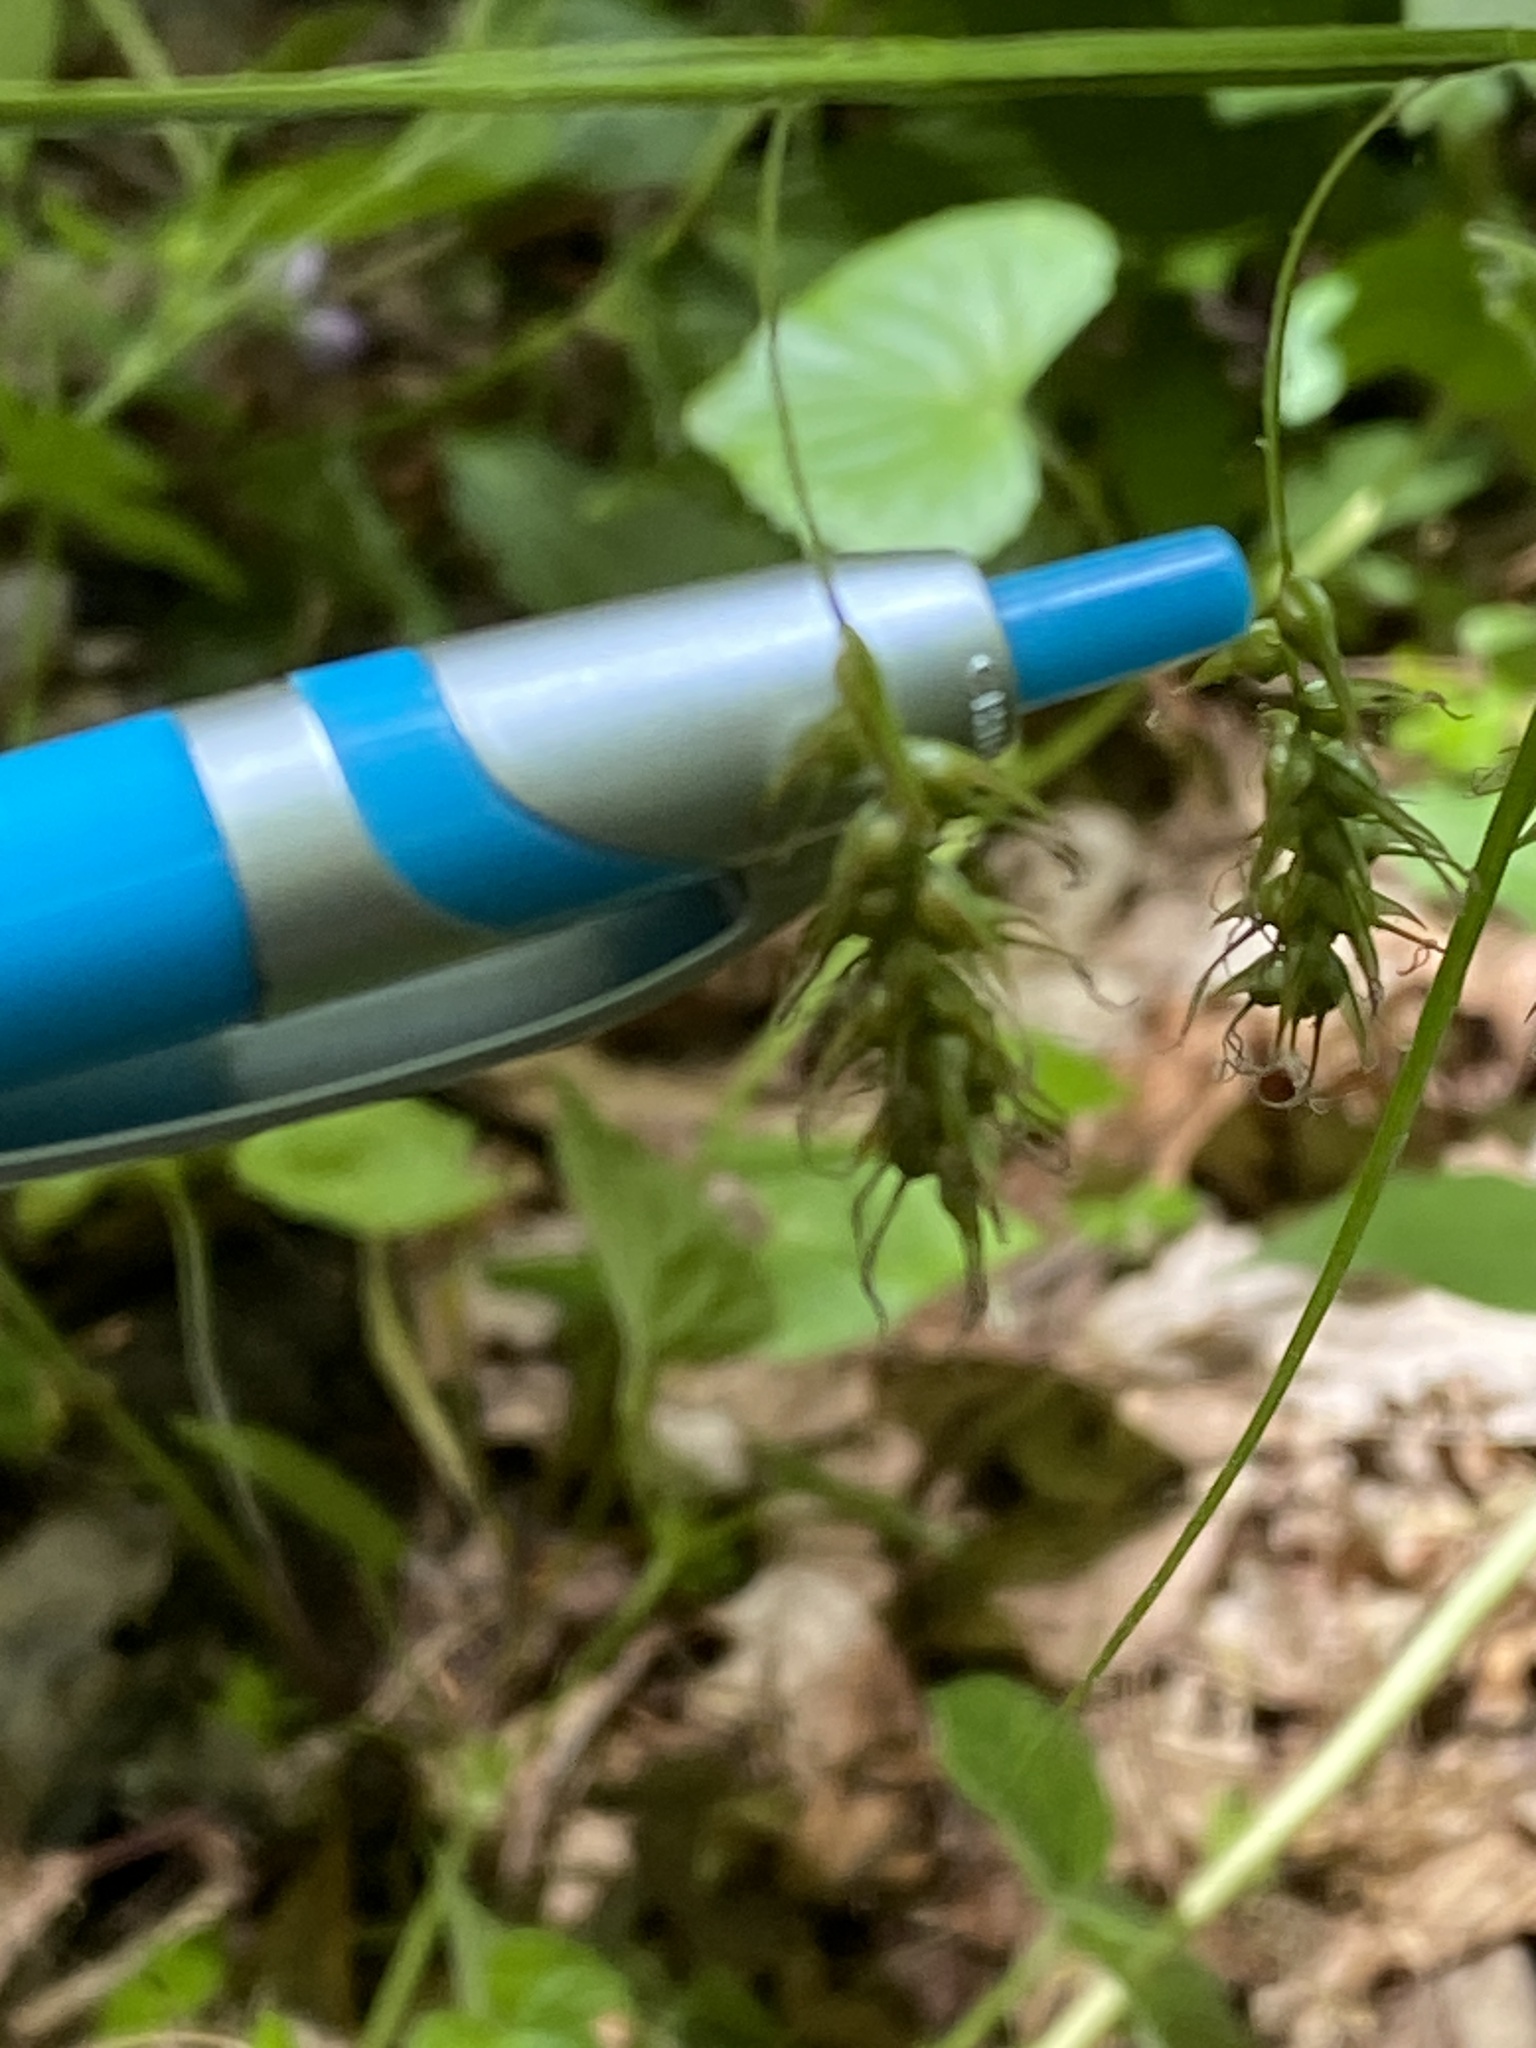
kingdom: Plantae
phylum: Tracheophyta
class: Liliopsida
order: Poales
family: Cyperaceae
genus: Carex
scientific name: Carex sprengelii
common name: Long-beaked sedge
